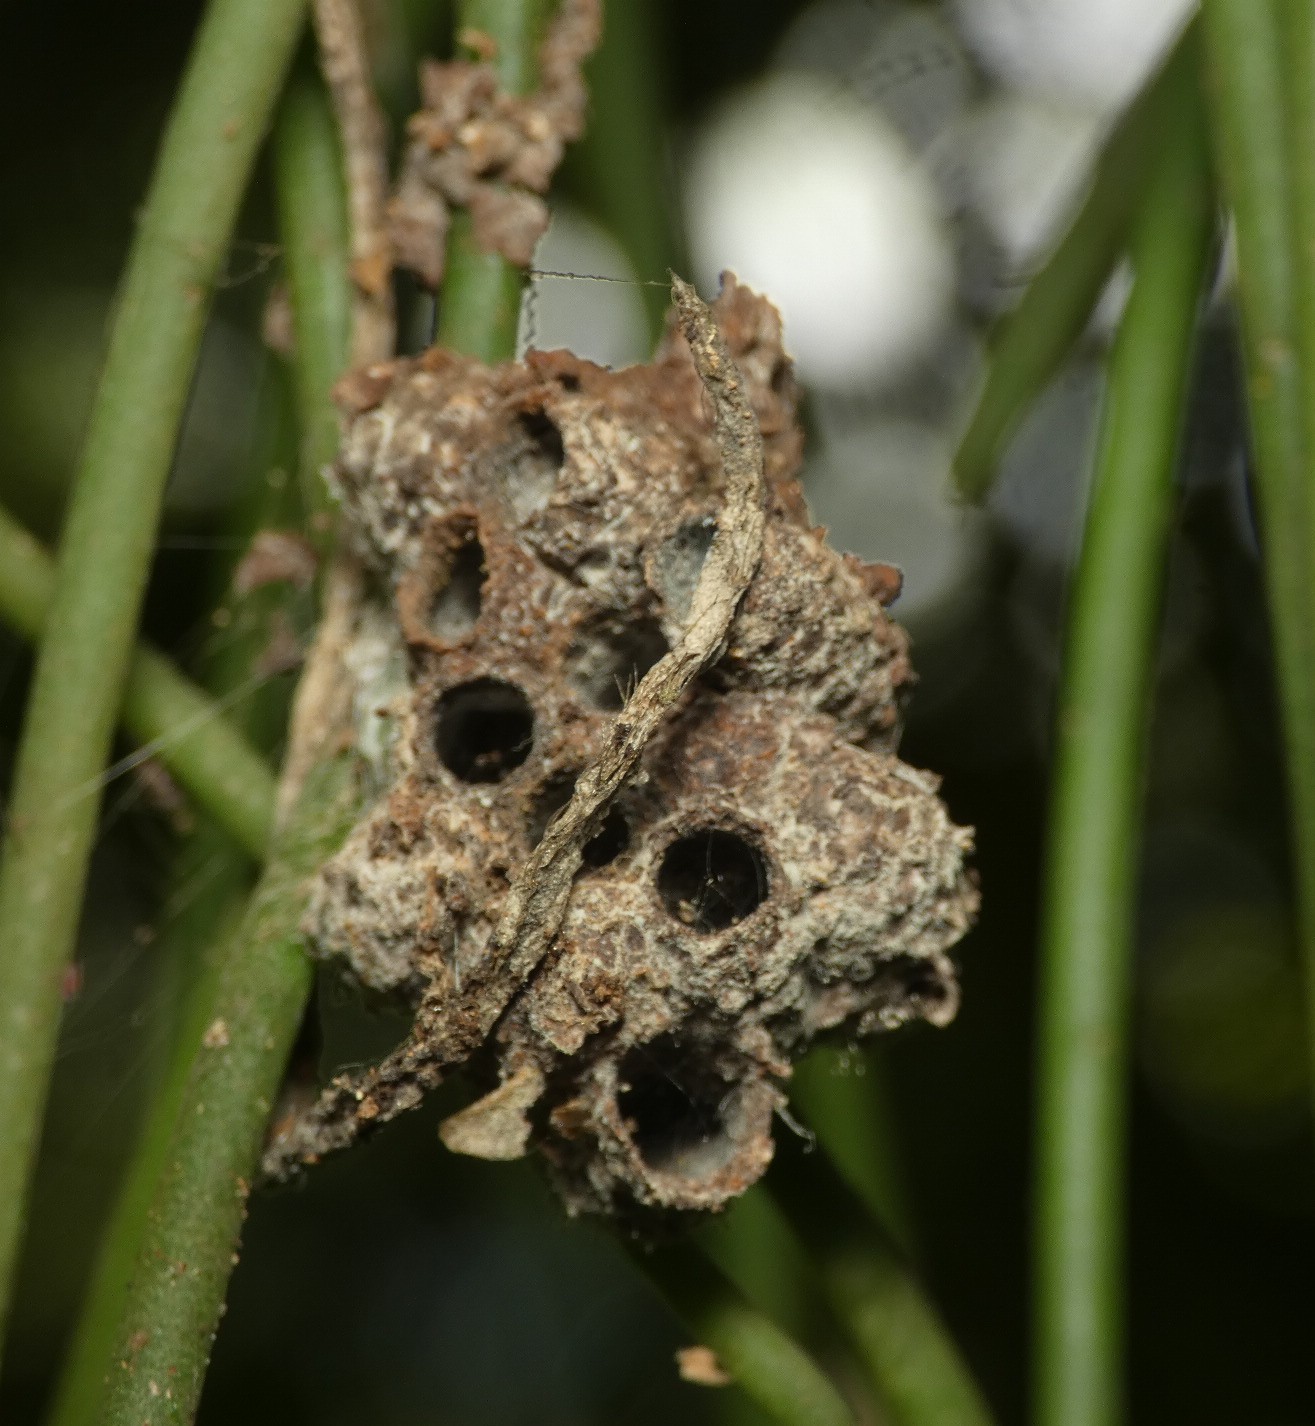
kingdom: Animalia
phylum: Arthropoda
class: Insecta
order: Hymenoptera
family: Eumenidae
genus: Zethus
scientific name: Zethus miniatus
